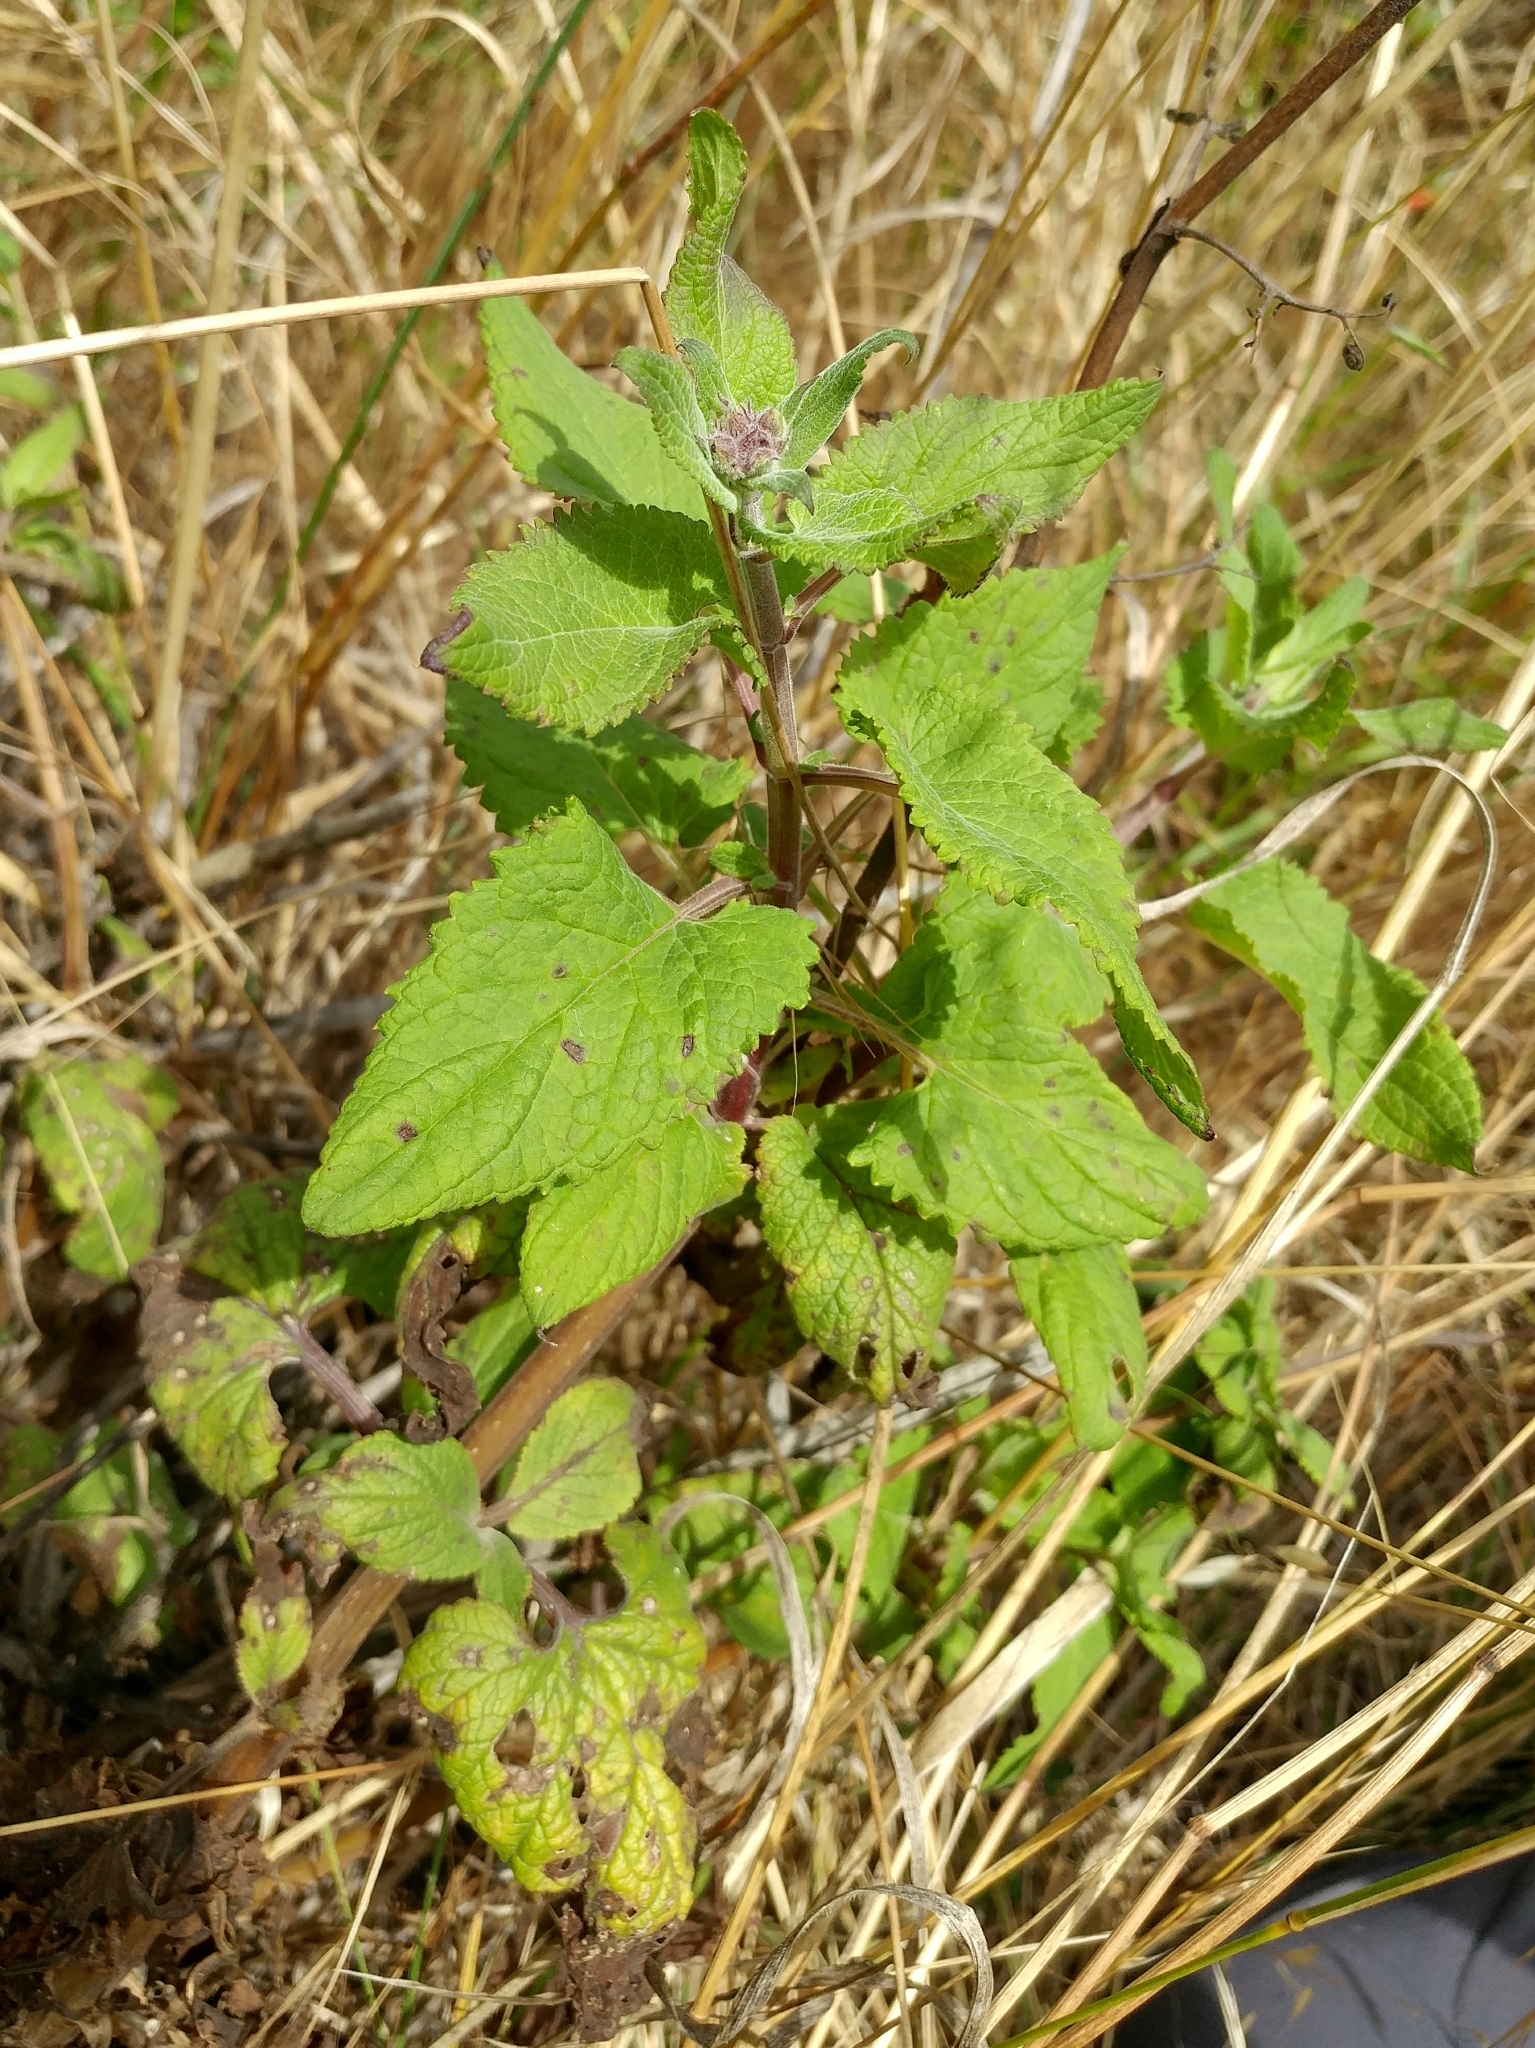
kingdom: Plantae
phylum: Tracheophyta
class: Magnoliopsida
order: Lamiales
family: Scrophulariaceae
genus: Scrophularia
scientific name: Scrophularia villosa
